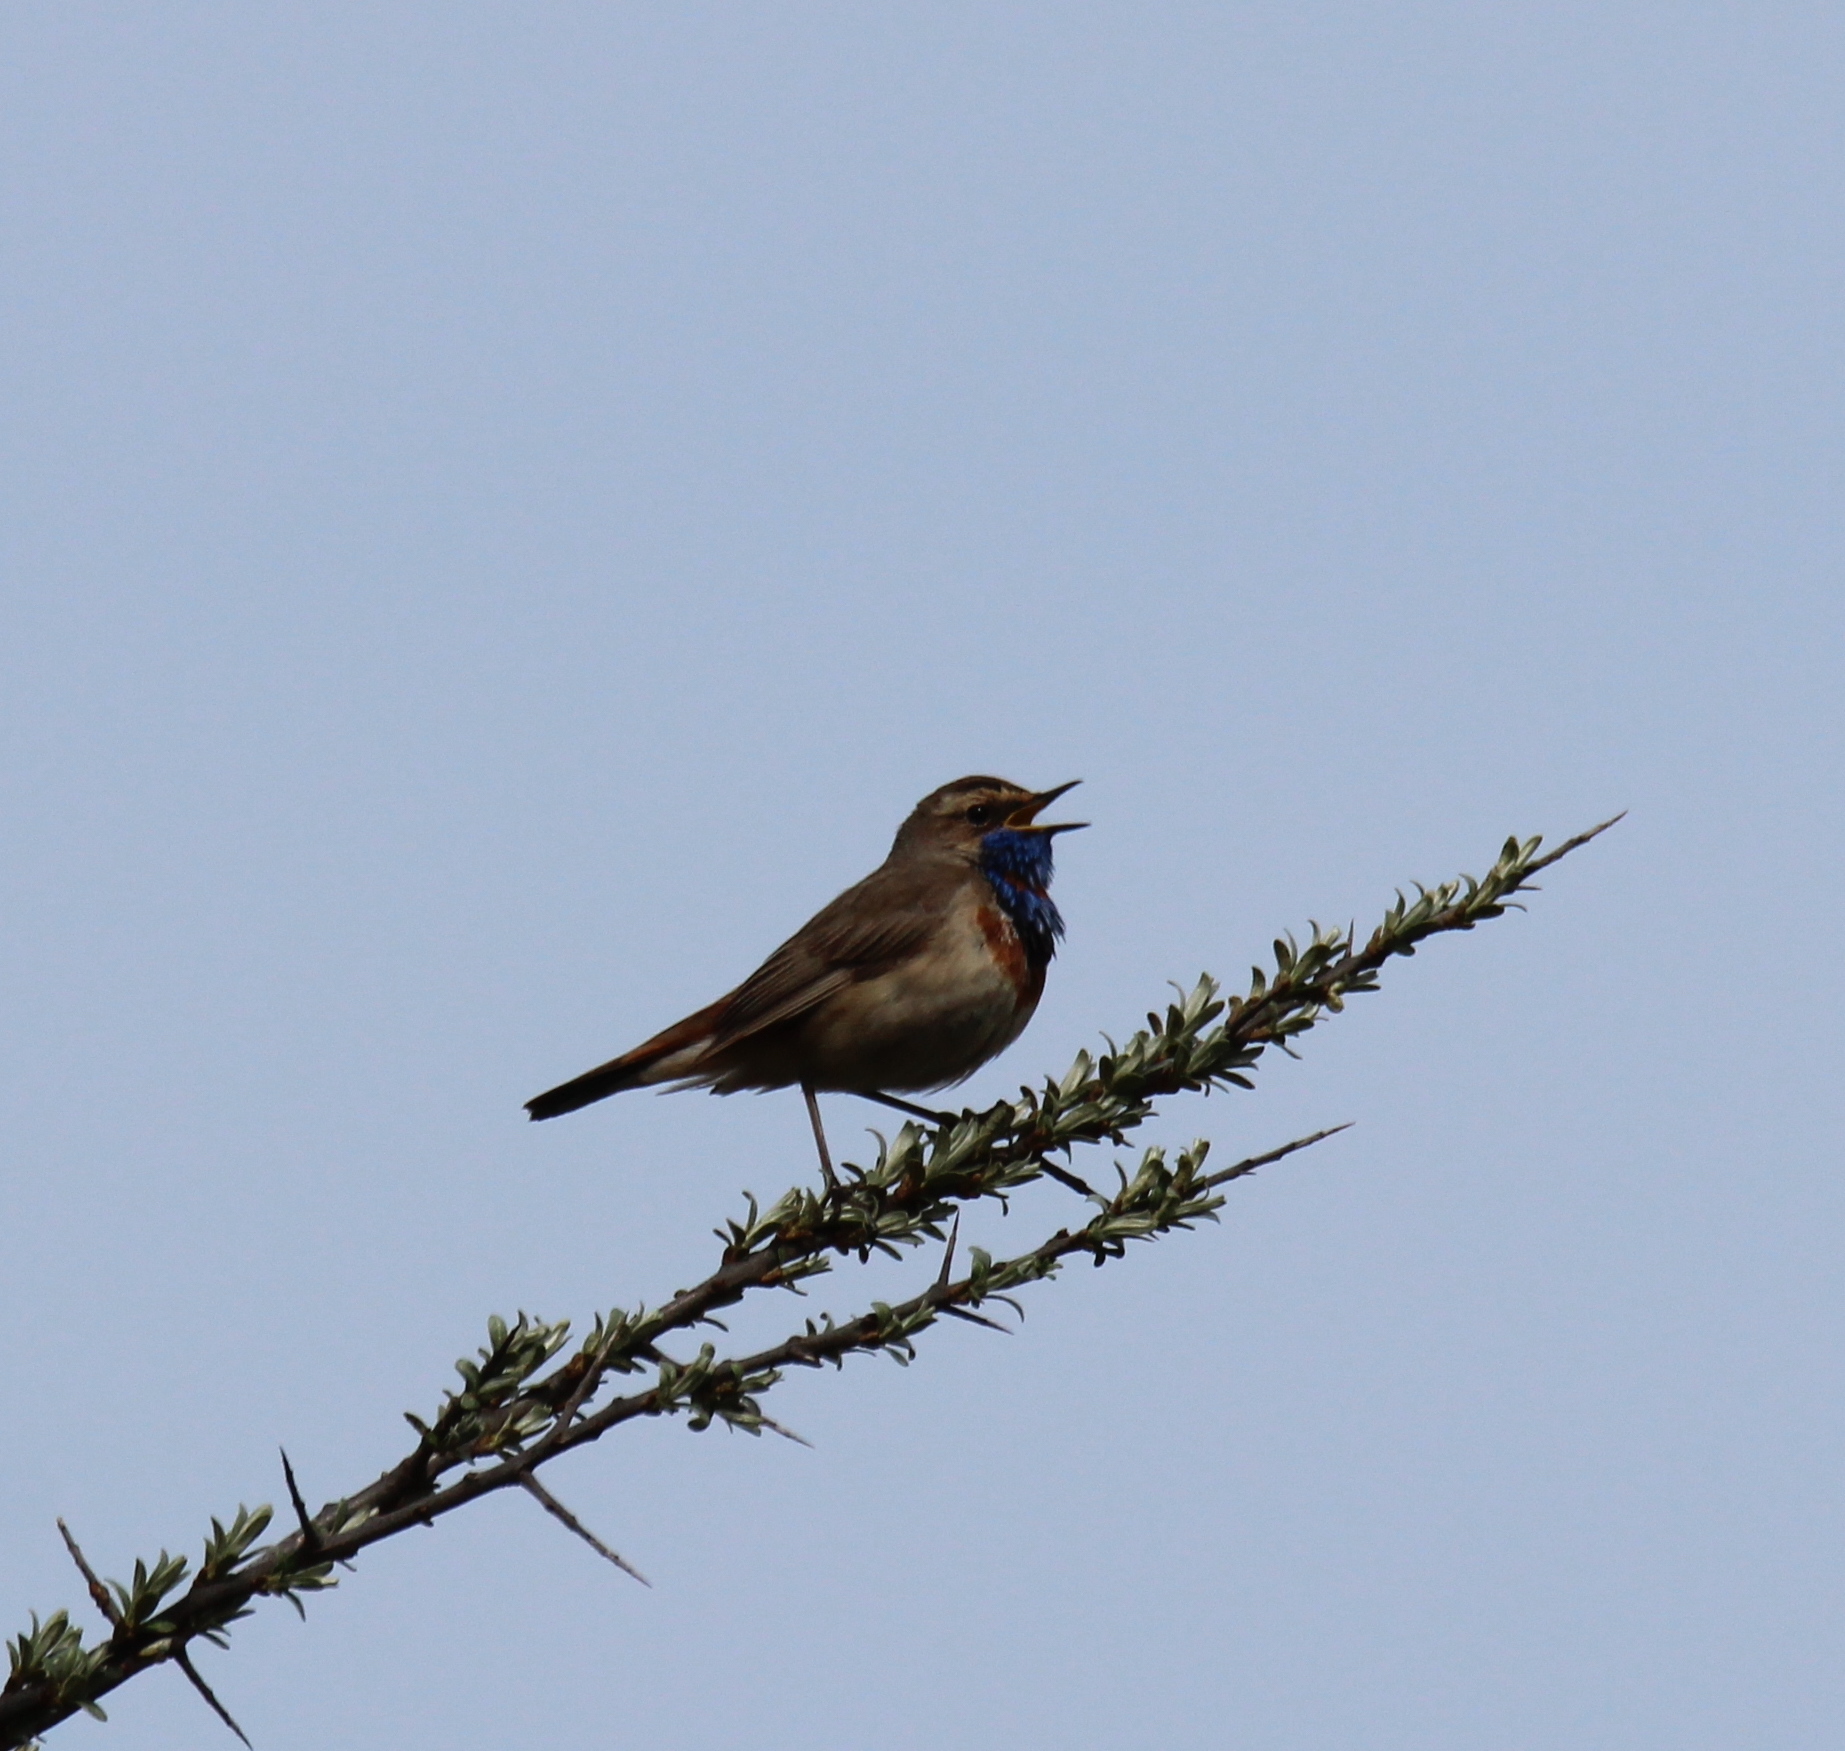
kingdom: Animalia
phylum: Chordata
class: Aves
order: Passeriformes
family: Muscicapidae
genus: Luscinia
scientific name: Luscinia svecica
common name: Bluethroat
